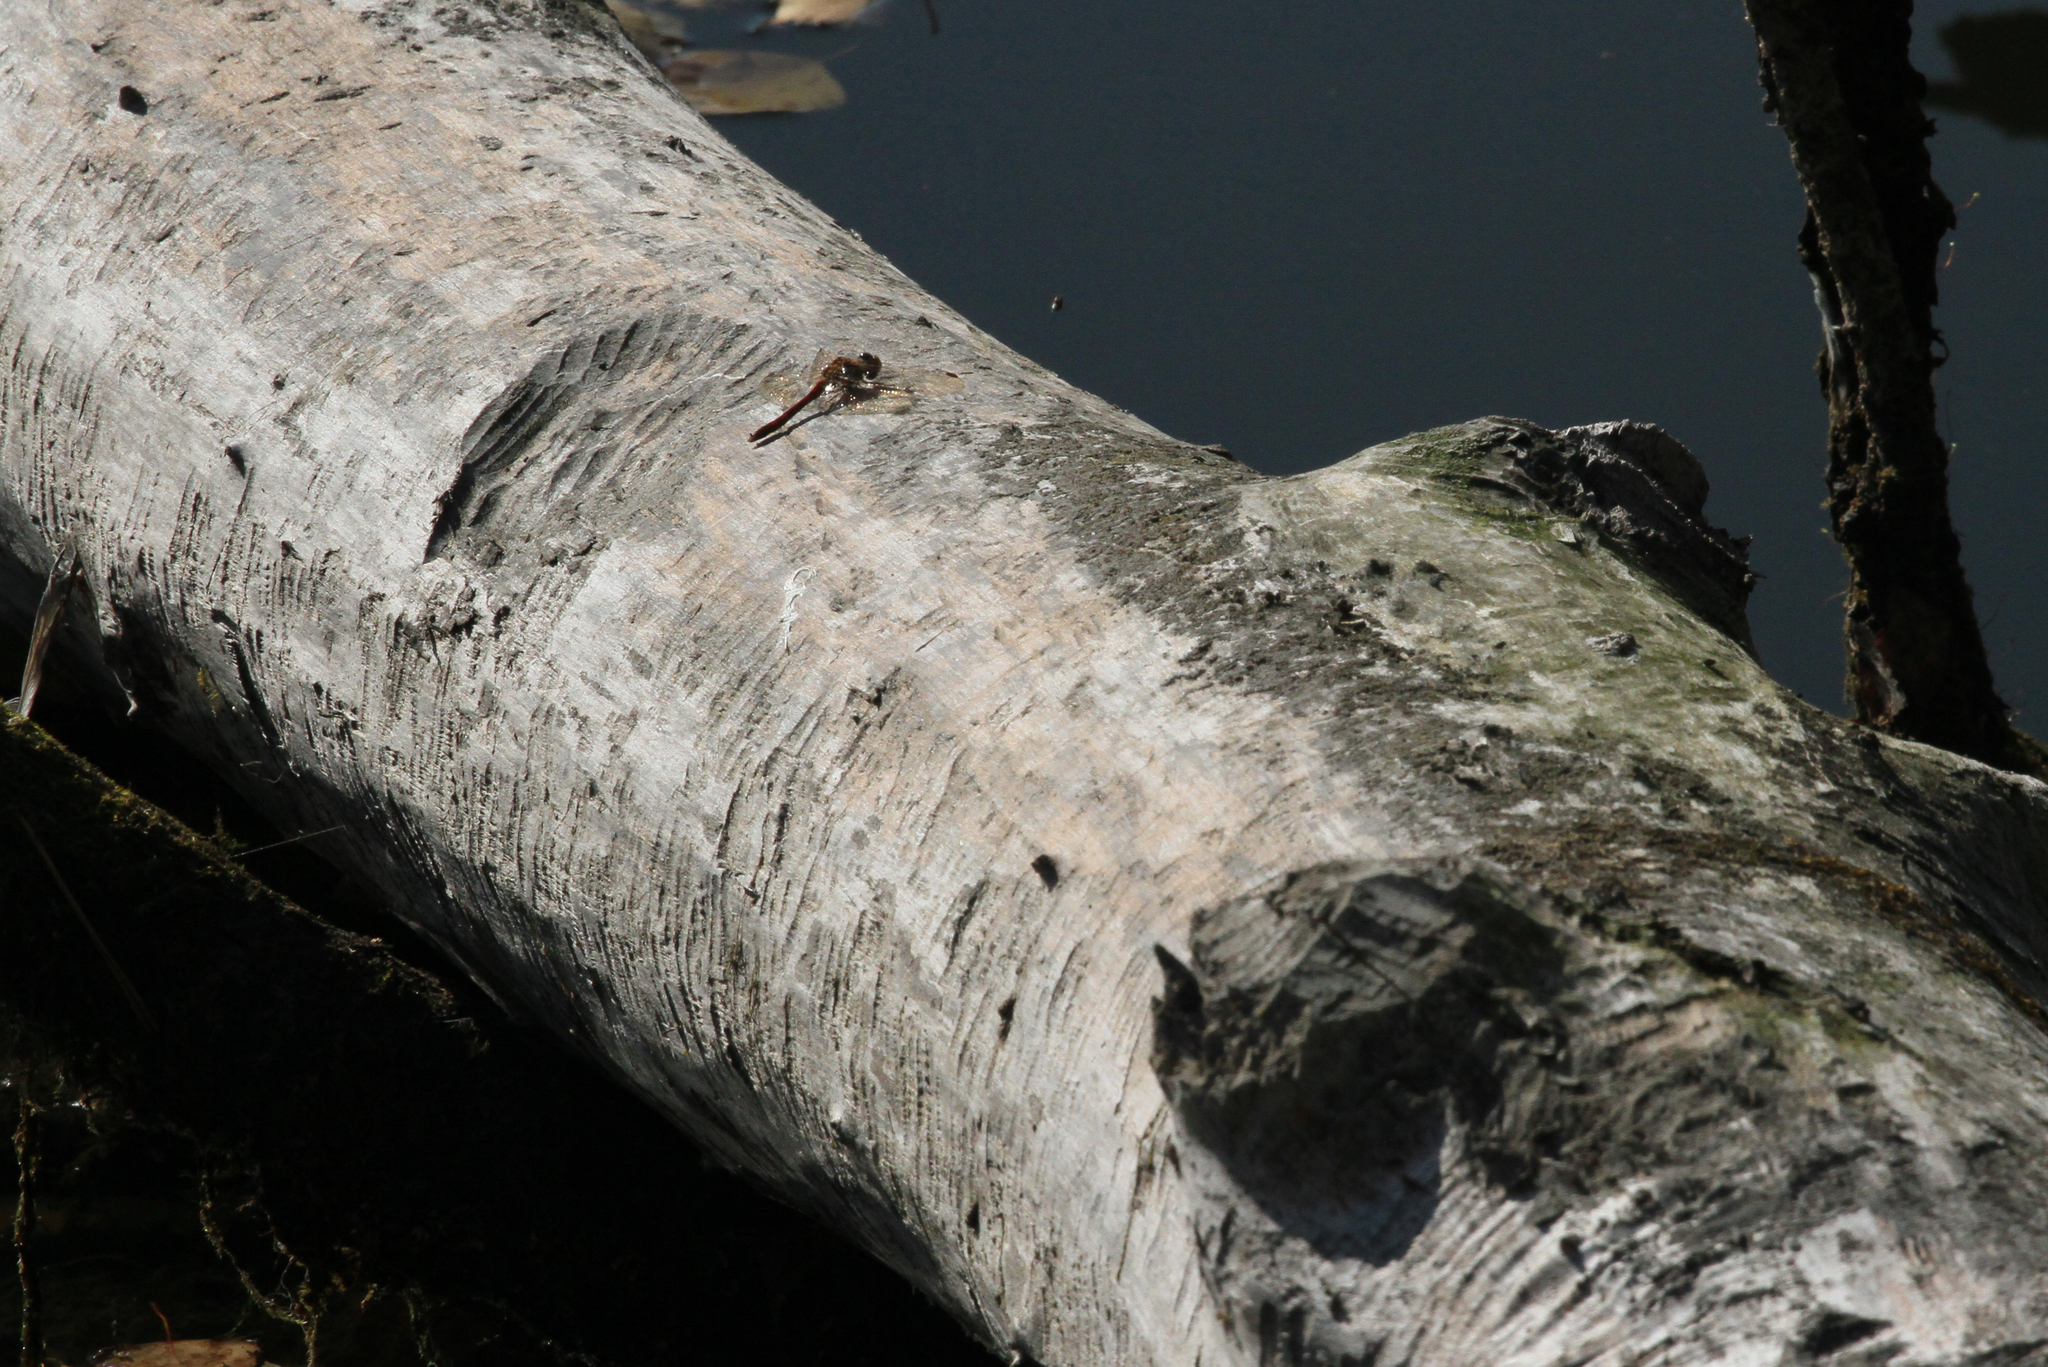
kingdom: Animalia
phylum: Arthropoda
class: Insecta
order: Odonata
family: Libellulidae
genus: Sympetrum
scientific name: Sympetrum vulgatum
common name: Vagrant darter
